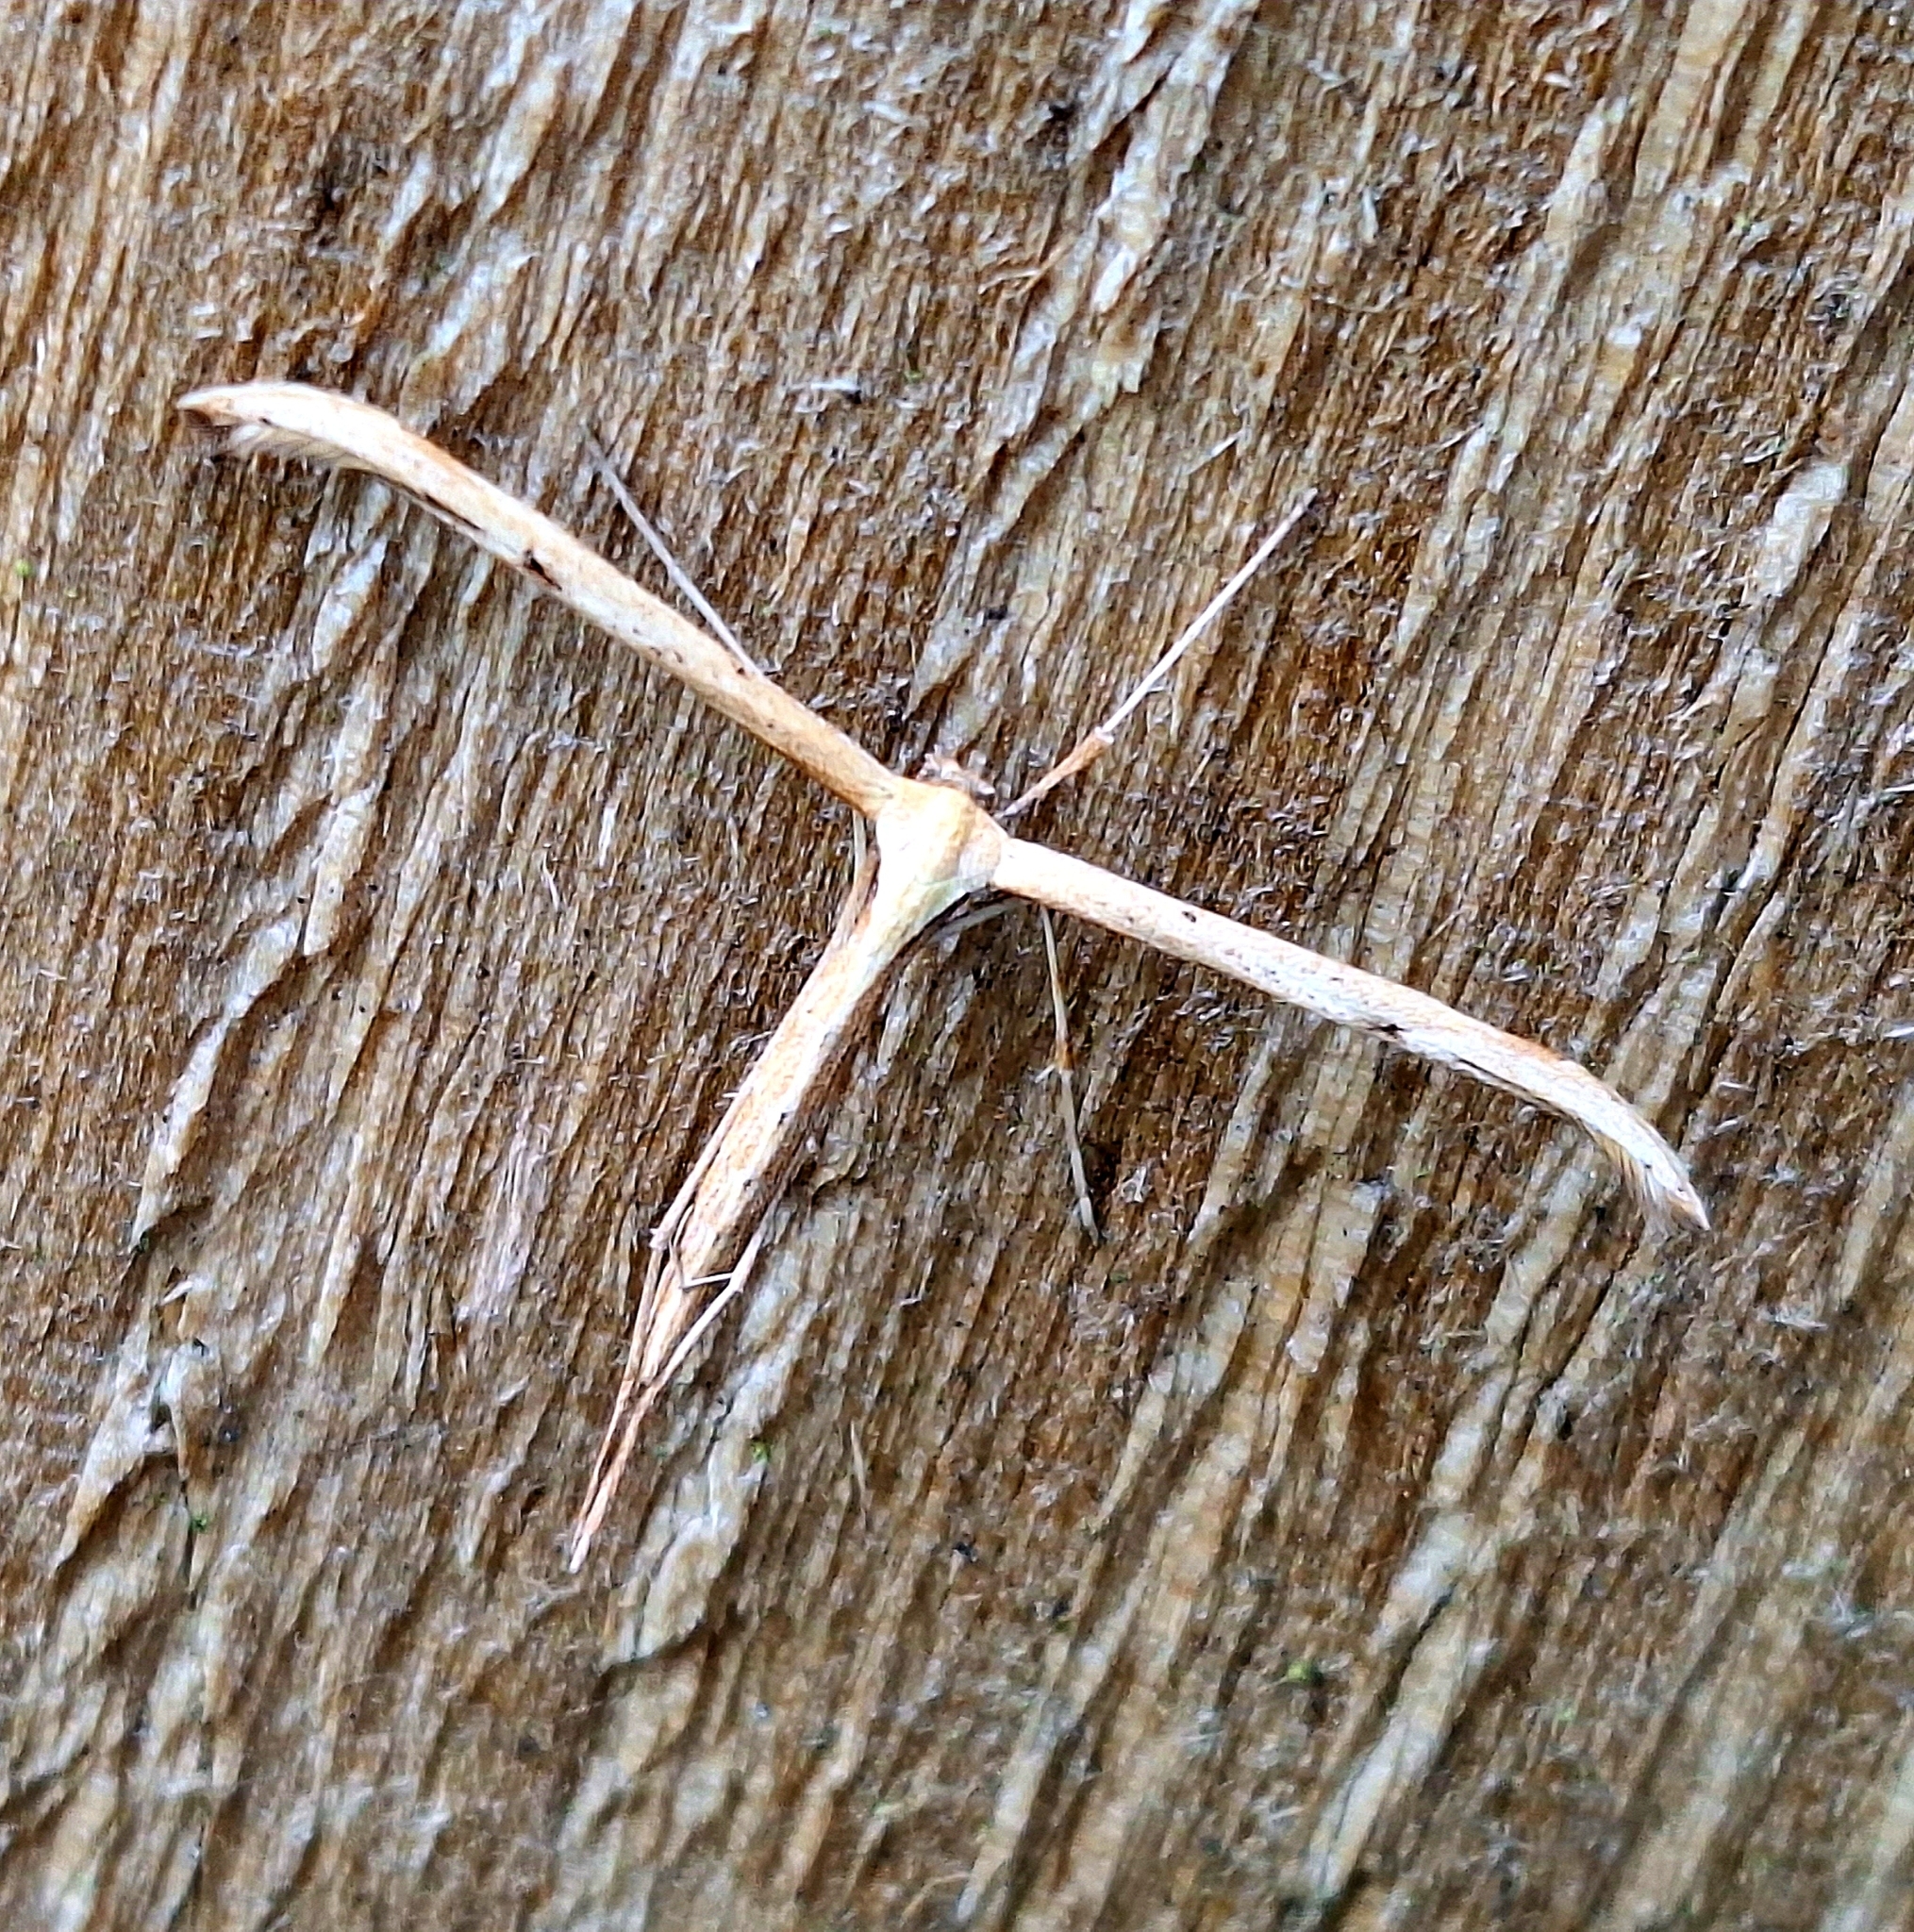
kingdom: Animalia
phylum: Arthropoda
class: Insecta
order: Lepidoptera
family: Pterophoridae
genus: Emmelina
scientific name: Emmelina monodactyla
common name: Common plume
